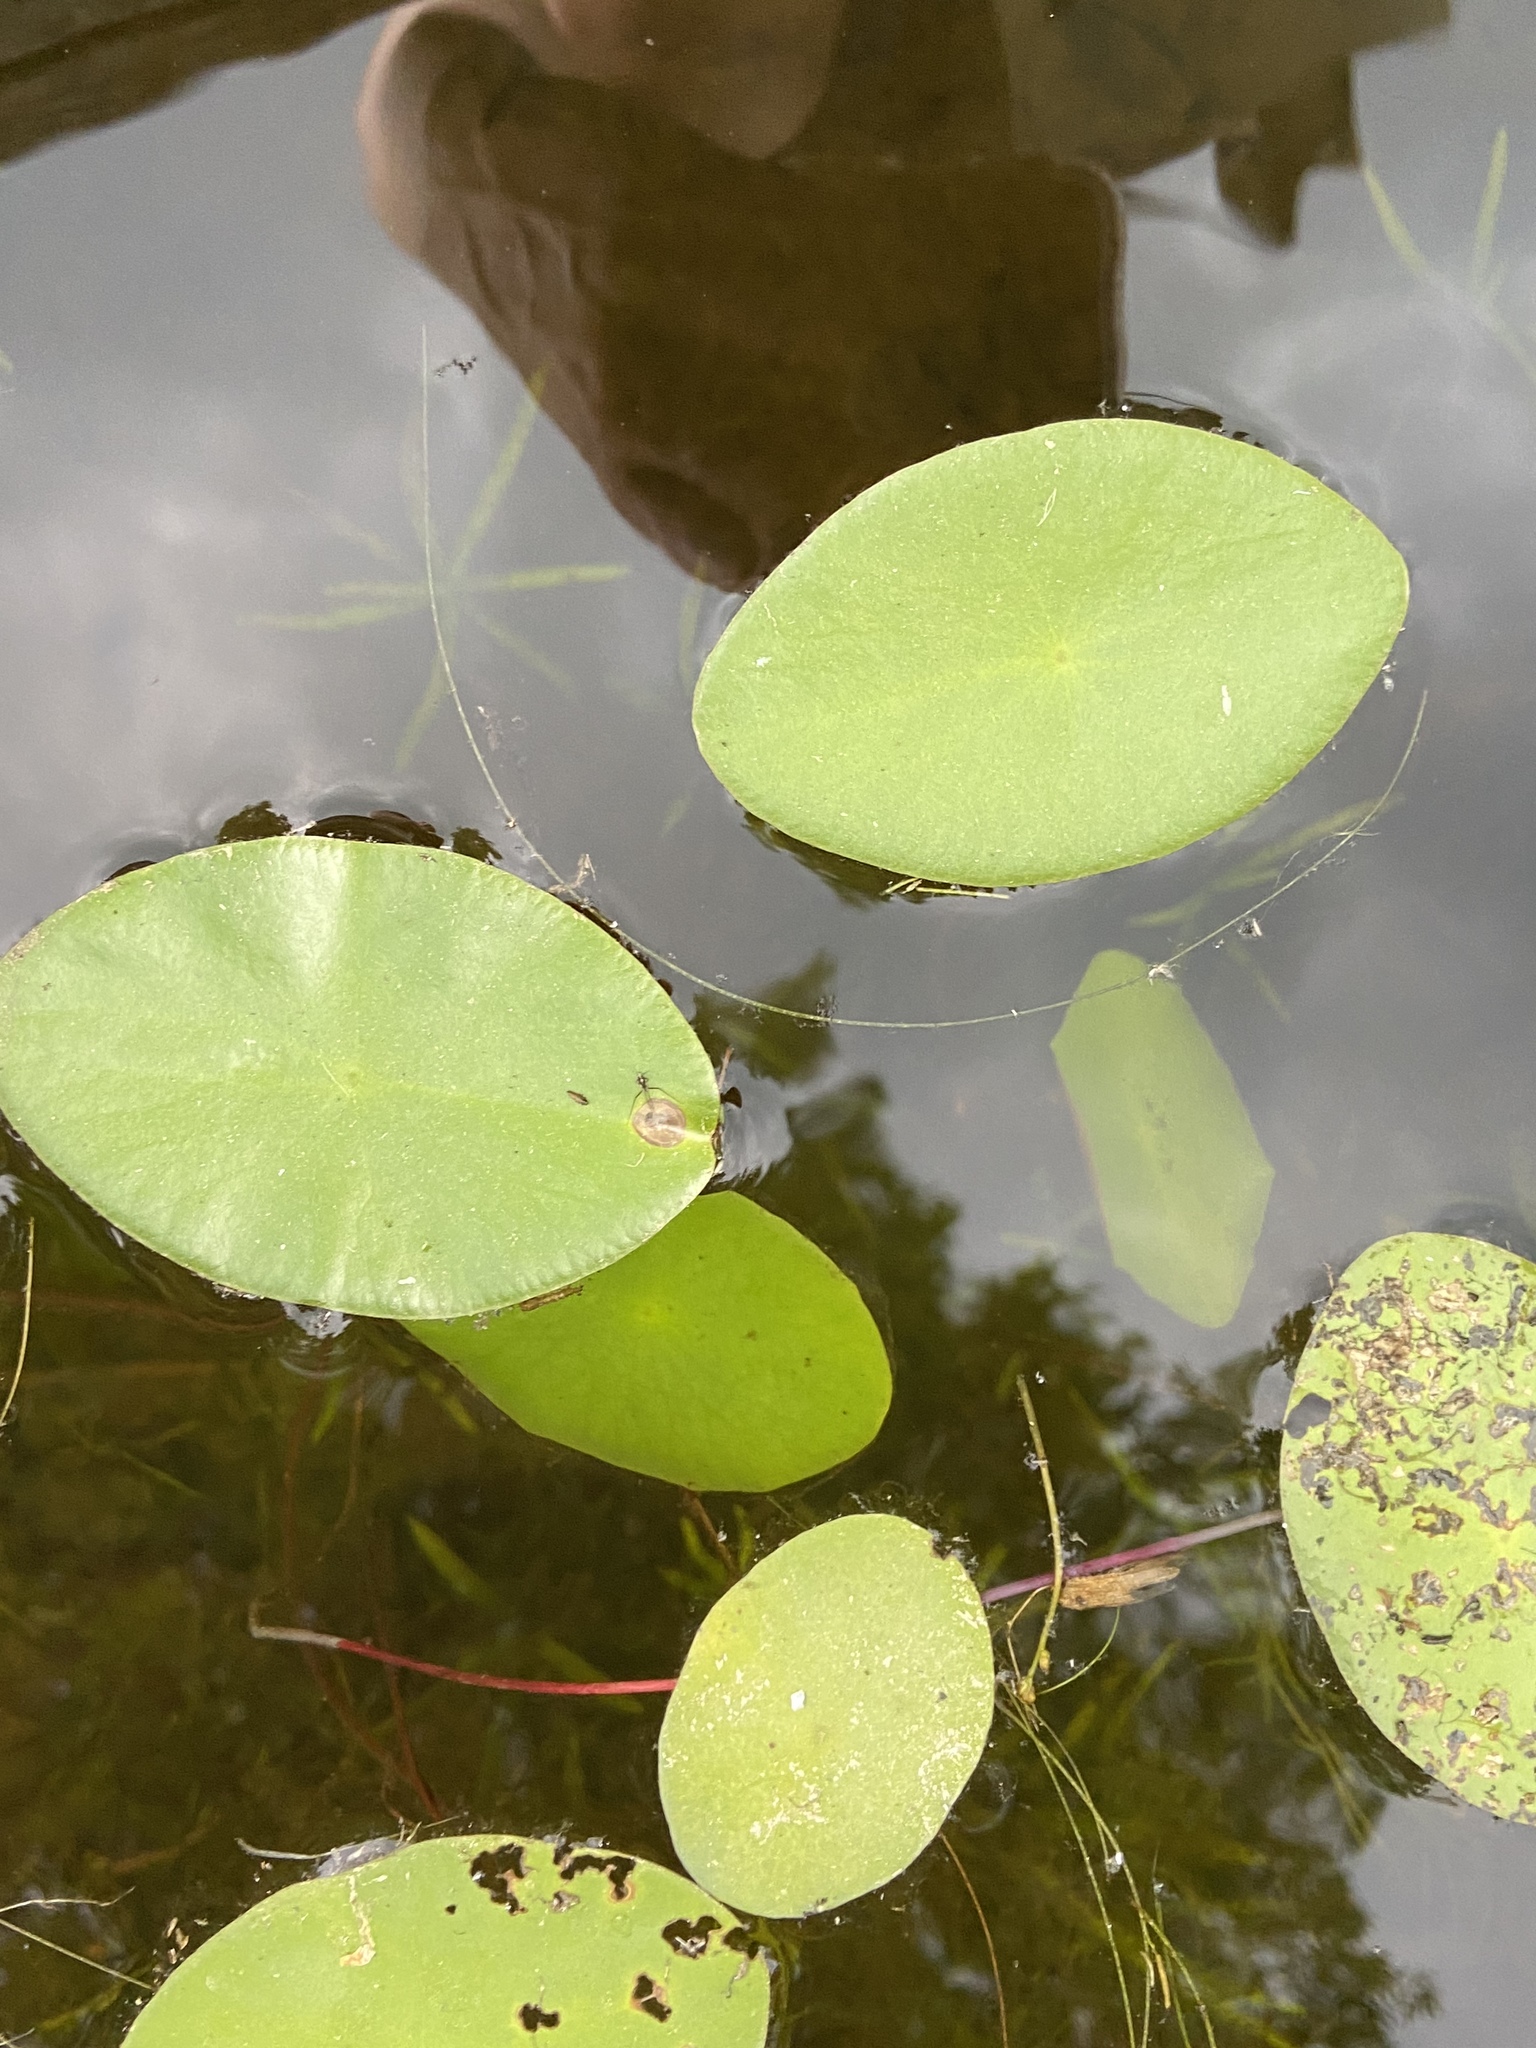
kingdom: Plantae
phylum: Tracheophyta
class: Magnoliopsida
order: Nymphaeales
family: Cabombaceae
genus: Brasenia
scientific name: Brasenia schreberi
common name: Water-shield
